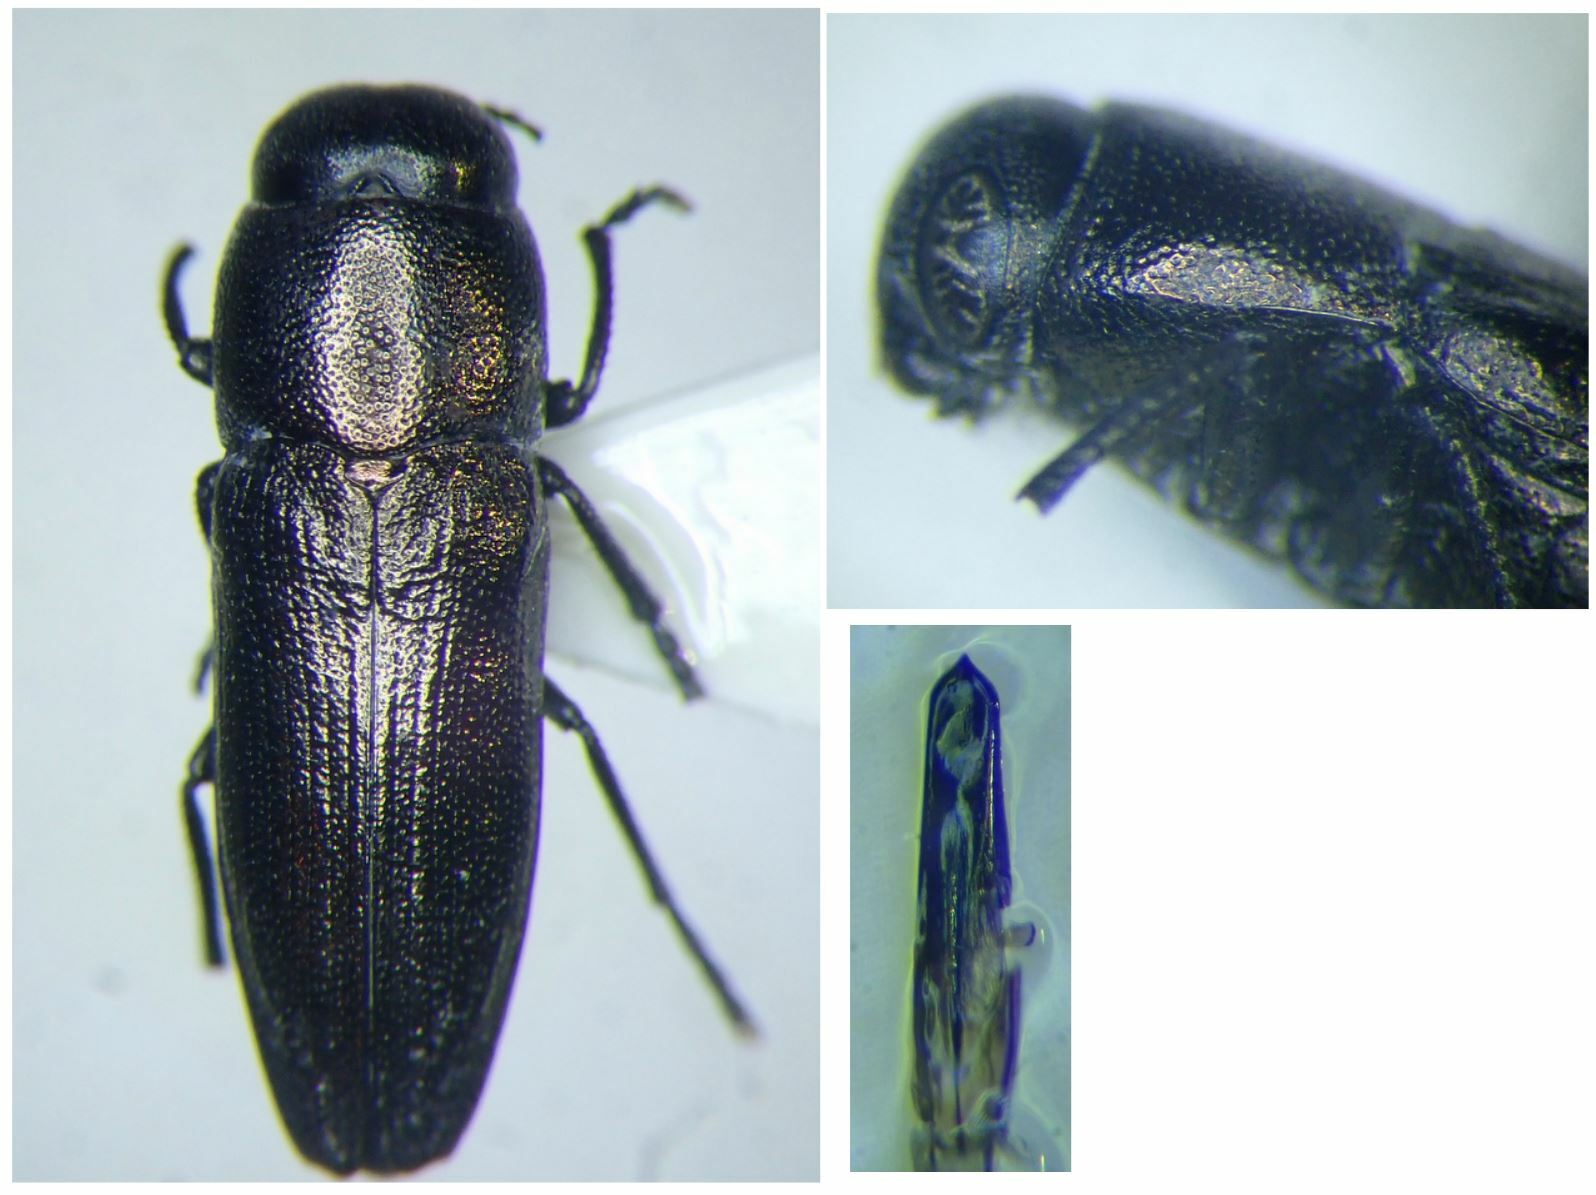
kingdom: Animalia
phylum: Arthropoda
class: Insecta
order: Coleoptera
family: Buprestidae
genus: Sphenoptera
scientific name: Sphenoptera laportei
